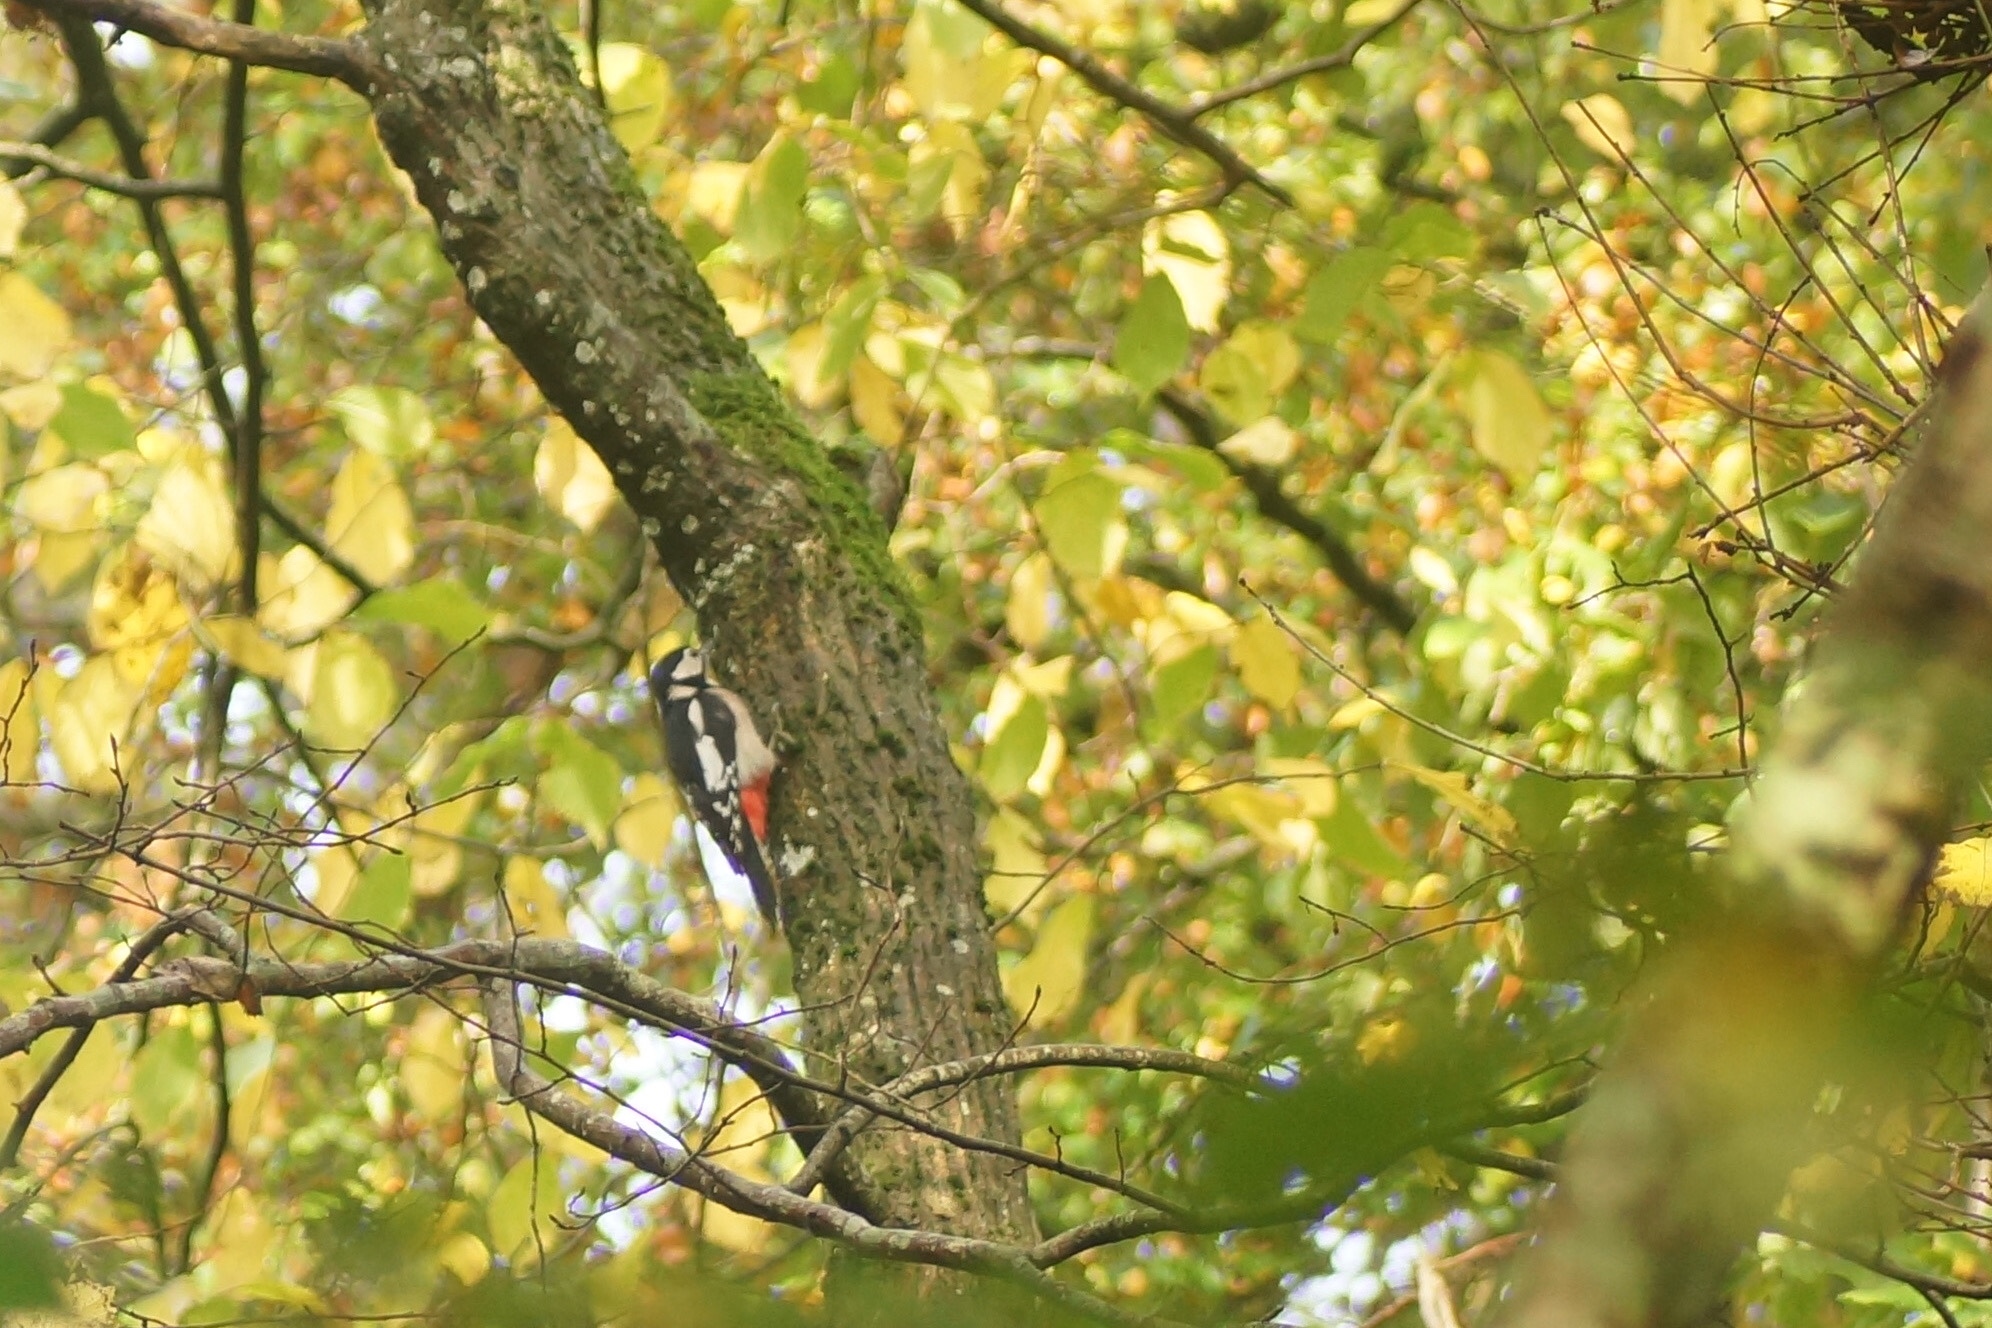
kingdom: Animalia
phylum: Chordata
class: Aves
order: Piciformes
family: Picidae
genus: Dendrocopos
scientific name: Dendrocopos major
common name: Great spotted woodpecker
